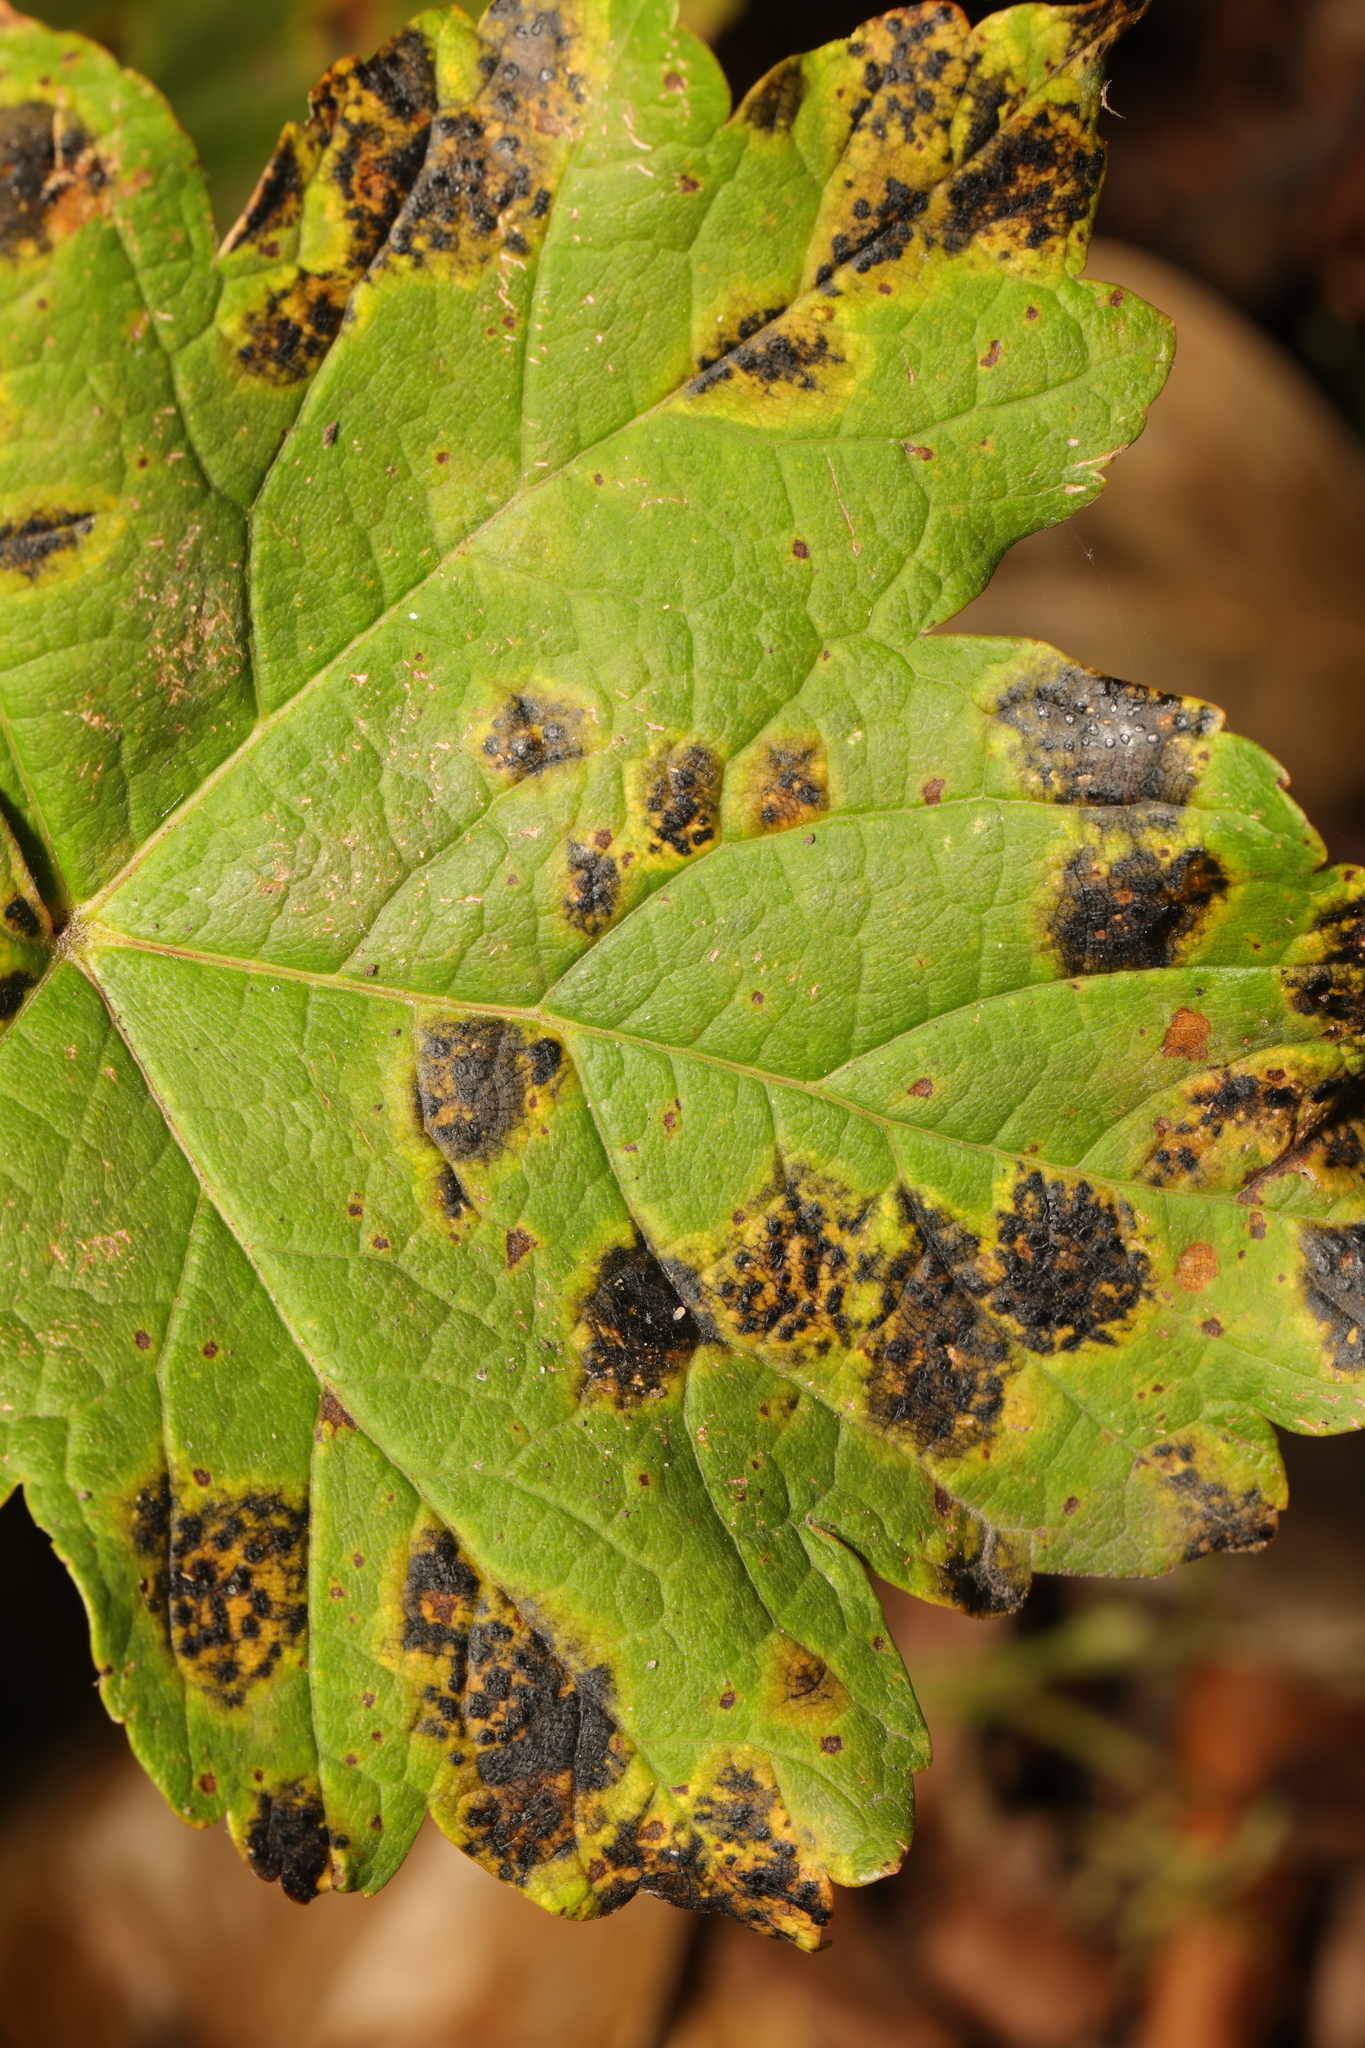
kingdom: Fungi
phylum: Ascomycota
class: Leotiomycetes
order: Rhytismatales
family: Rhytismataceae
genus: Rhytisma
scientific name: Rhytisma acerinum
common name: European tar spot
